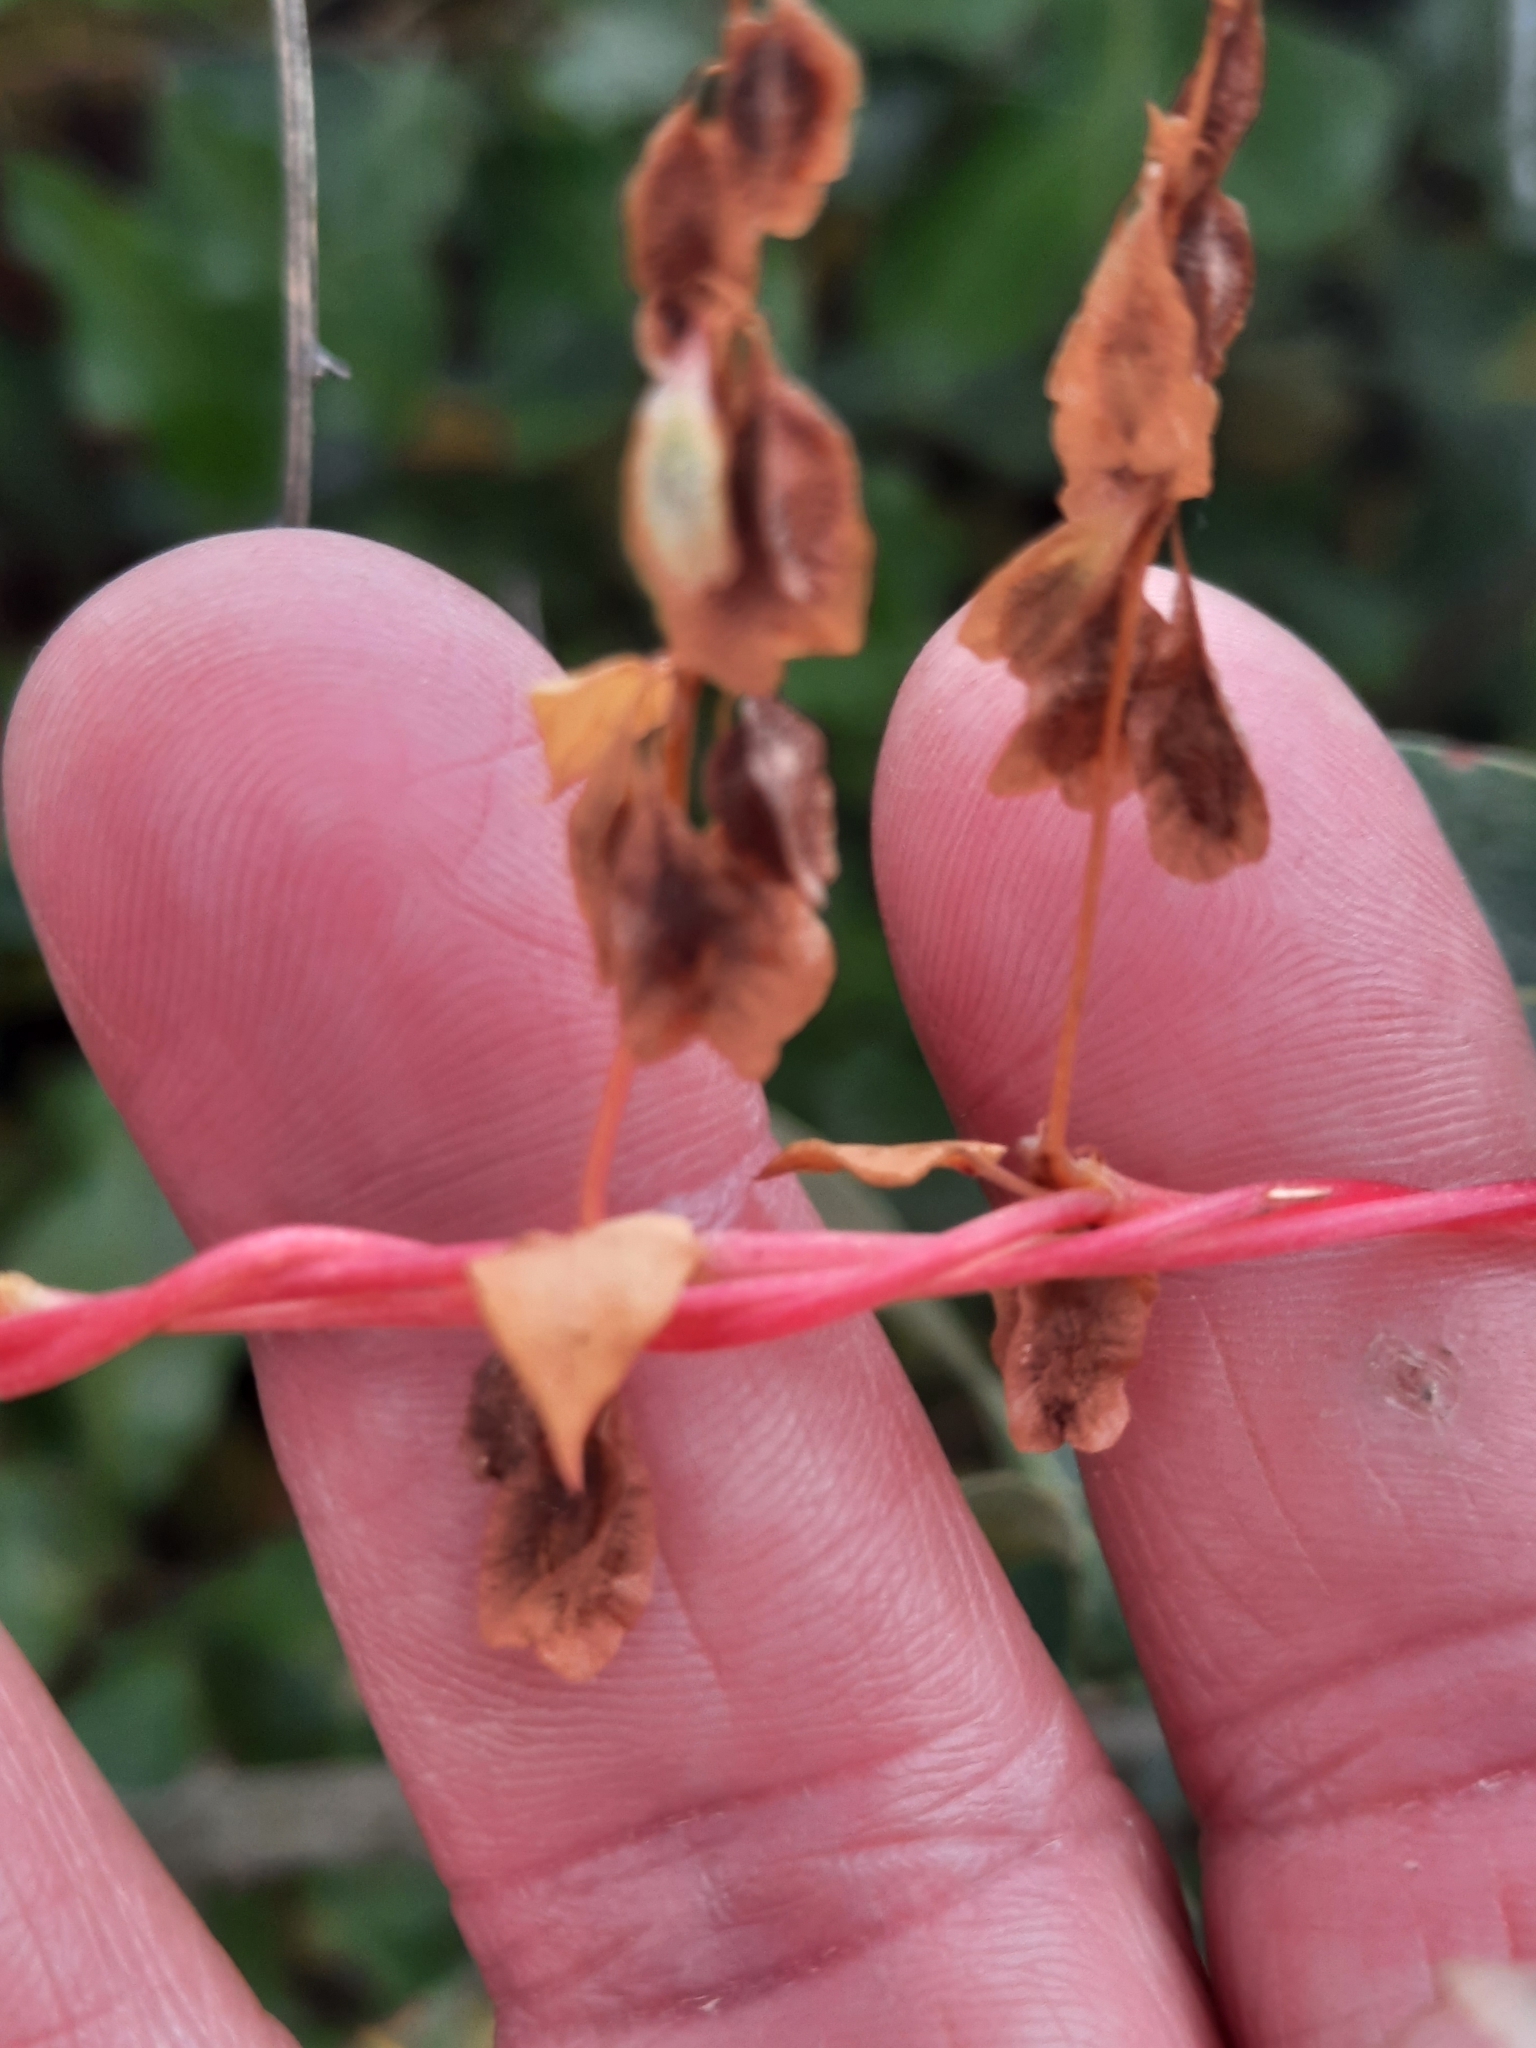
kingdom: Plantae
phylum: Tracheophyta
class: Magnoliopsida
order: Caryophyllales
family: Polygonaceae
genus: Fallopia
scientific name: Fallopia scandens
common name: Climbing false buckwheat
